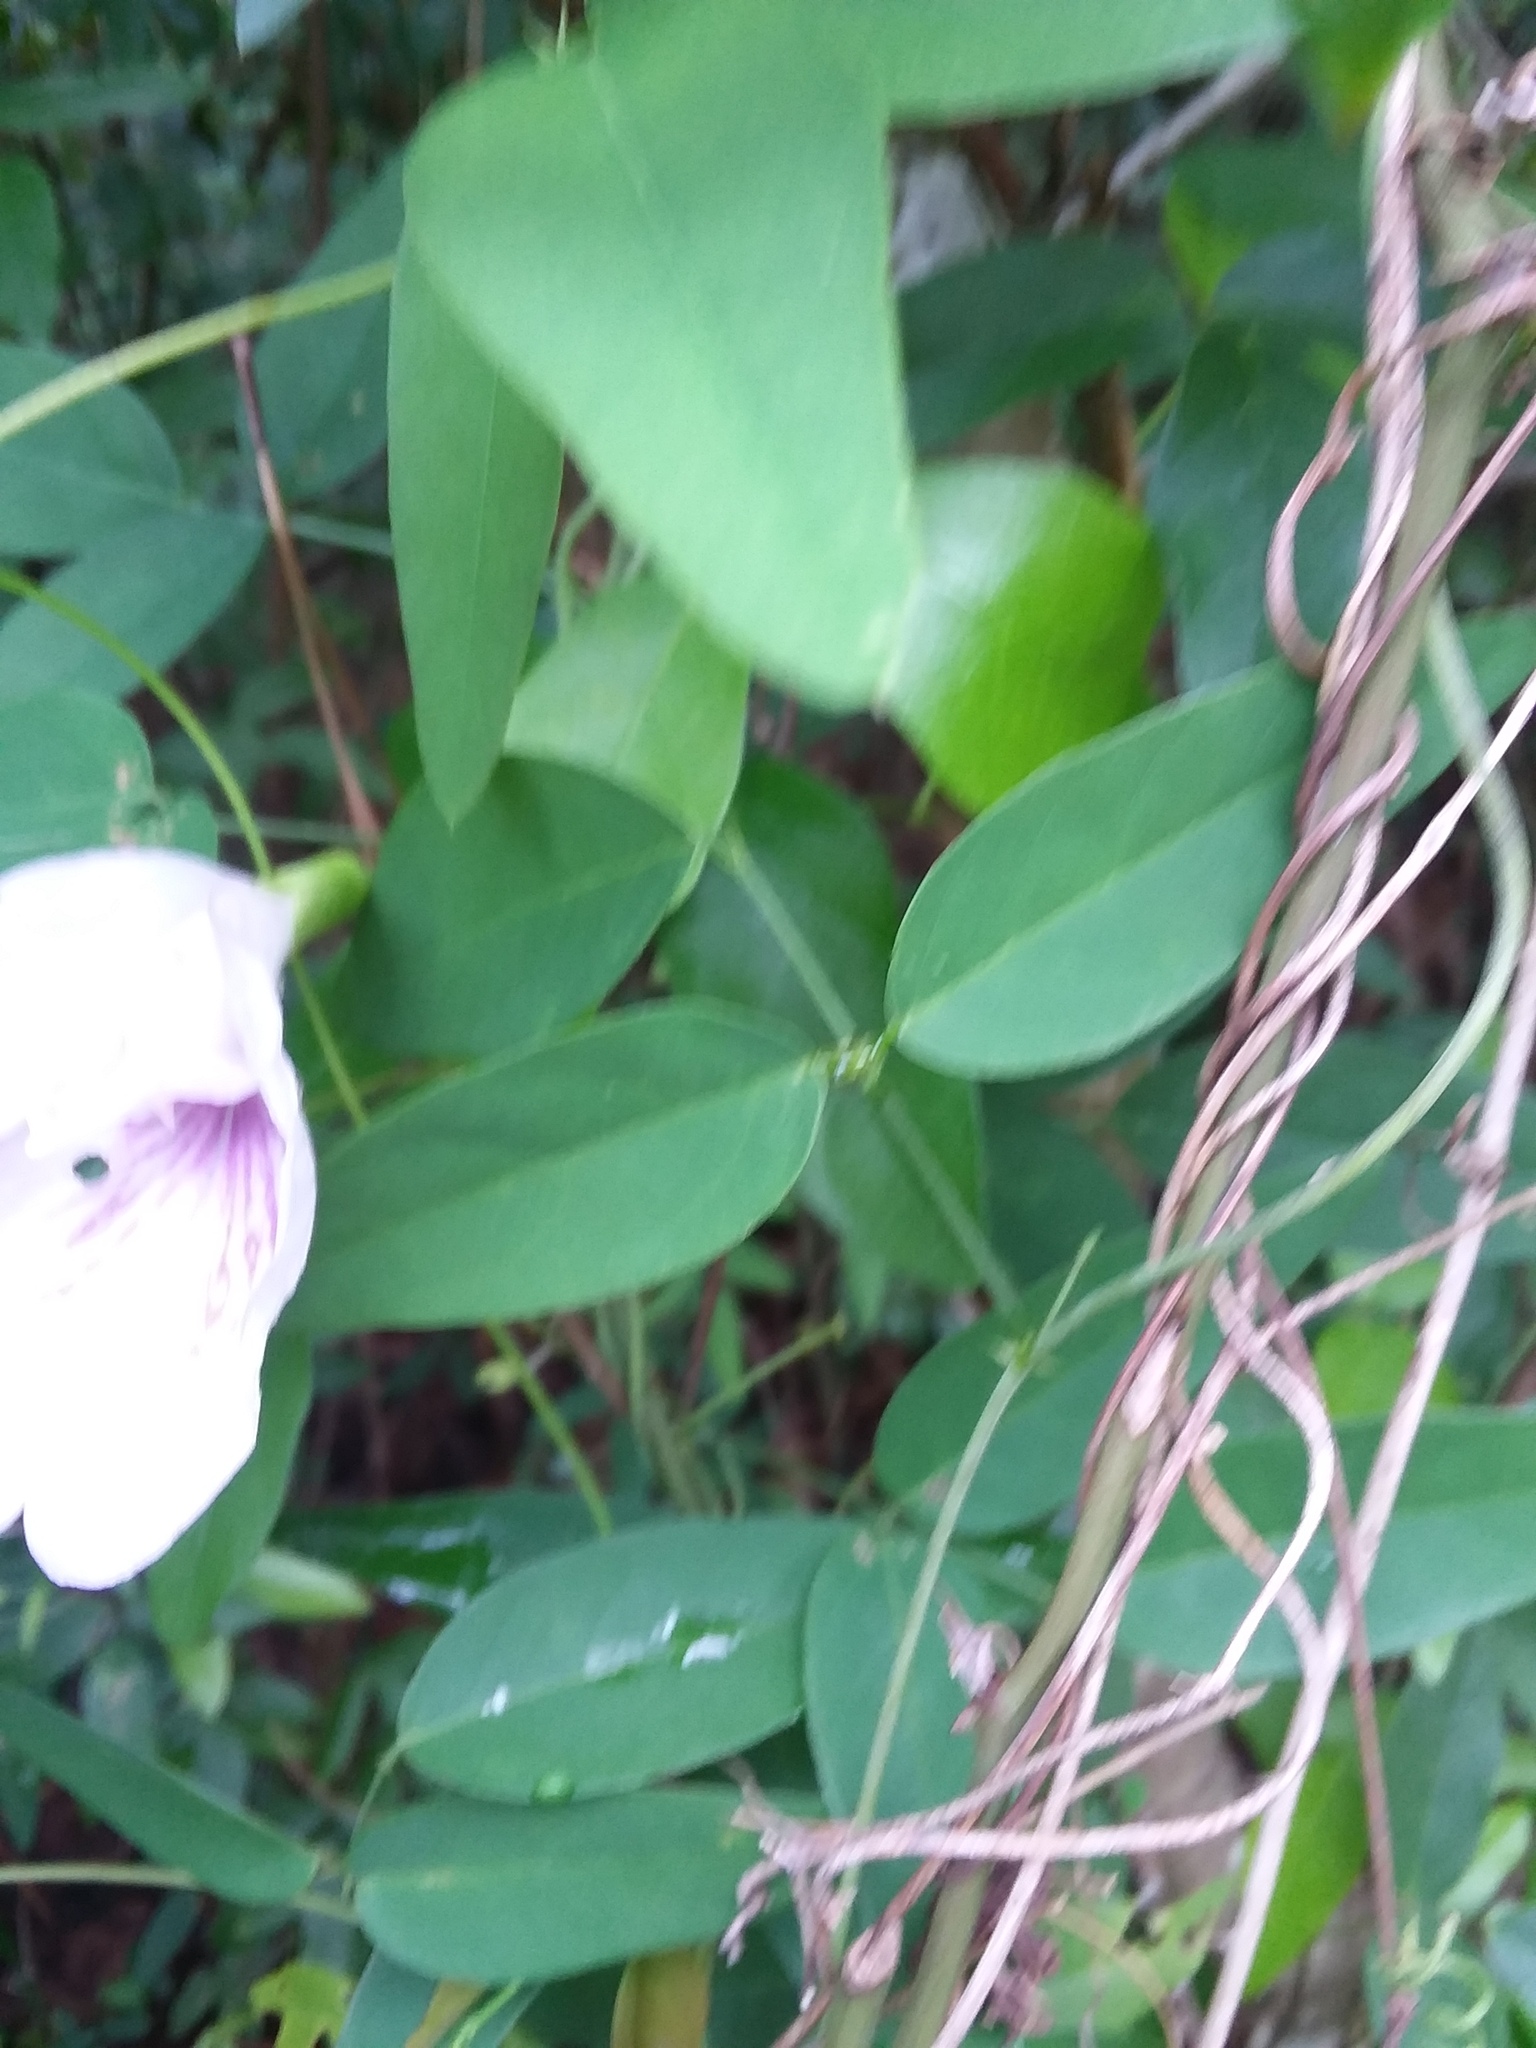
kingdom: Plantae
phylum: Tracheophyta
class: Magnoliopsida
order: Fabales
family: Fabaceae
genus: Clitoria
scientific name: Clitoria mariana
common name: Butterfly-pea
